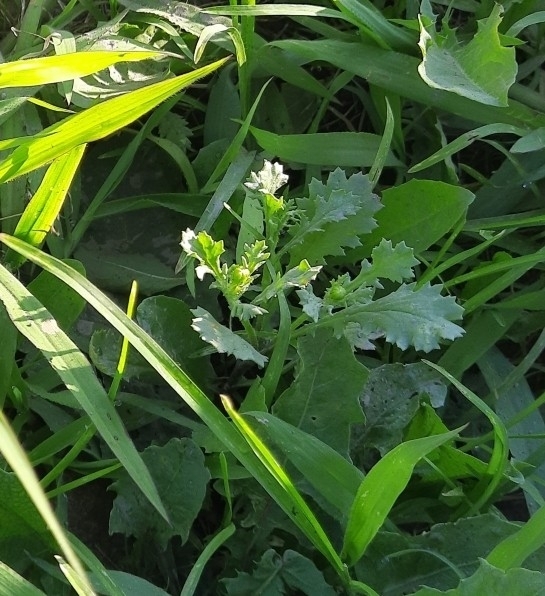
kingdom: Plantae
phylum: Tracheophyta
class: Magnoliopsida
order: Asterales
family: Asteraceae
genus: Senecio
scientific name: Senecio vulgaris
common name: Old-man-in-the-spring
